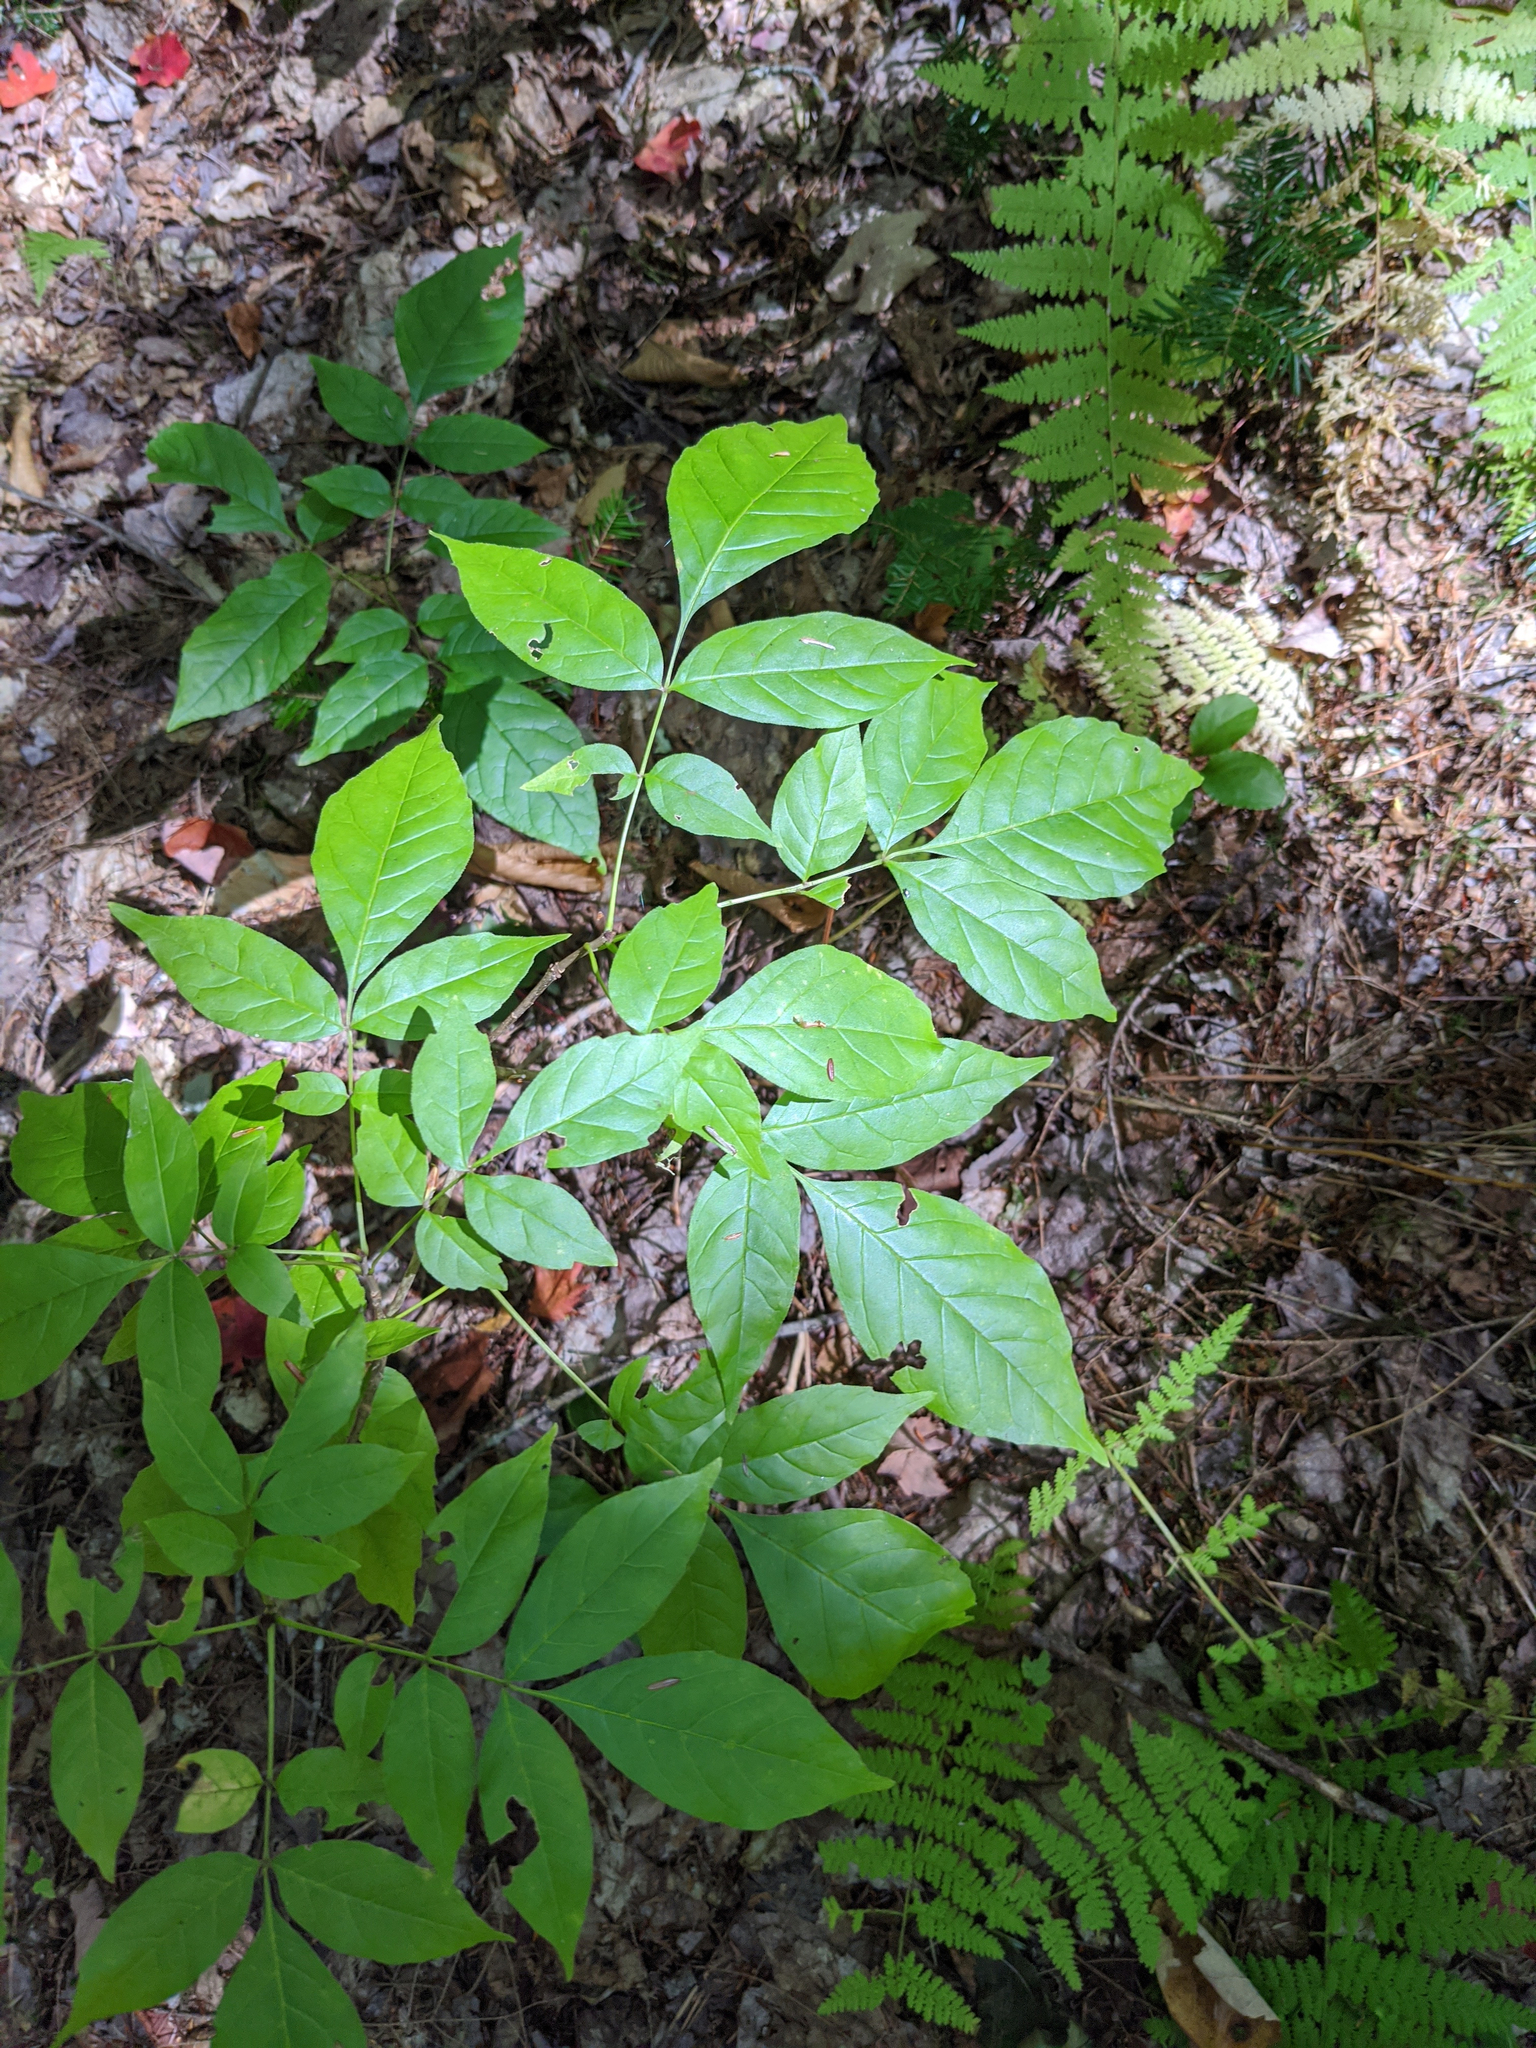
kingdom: Plantae
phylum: Tracheophyta
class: Magnoliopsida
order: Apiales
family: Araliaceae
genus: Aralia
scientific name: Aralia nudicaulis
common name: Wild sarsaparilla
